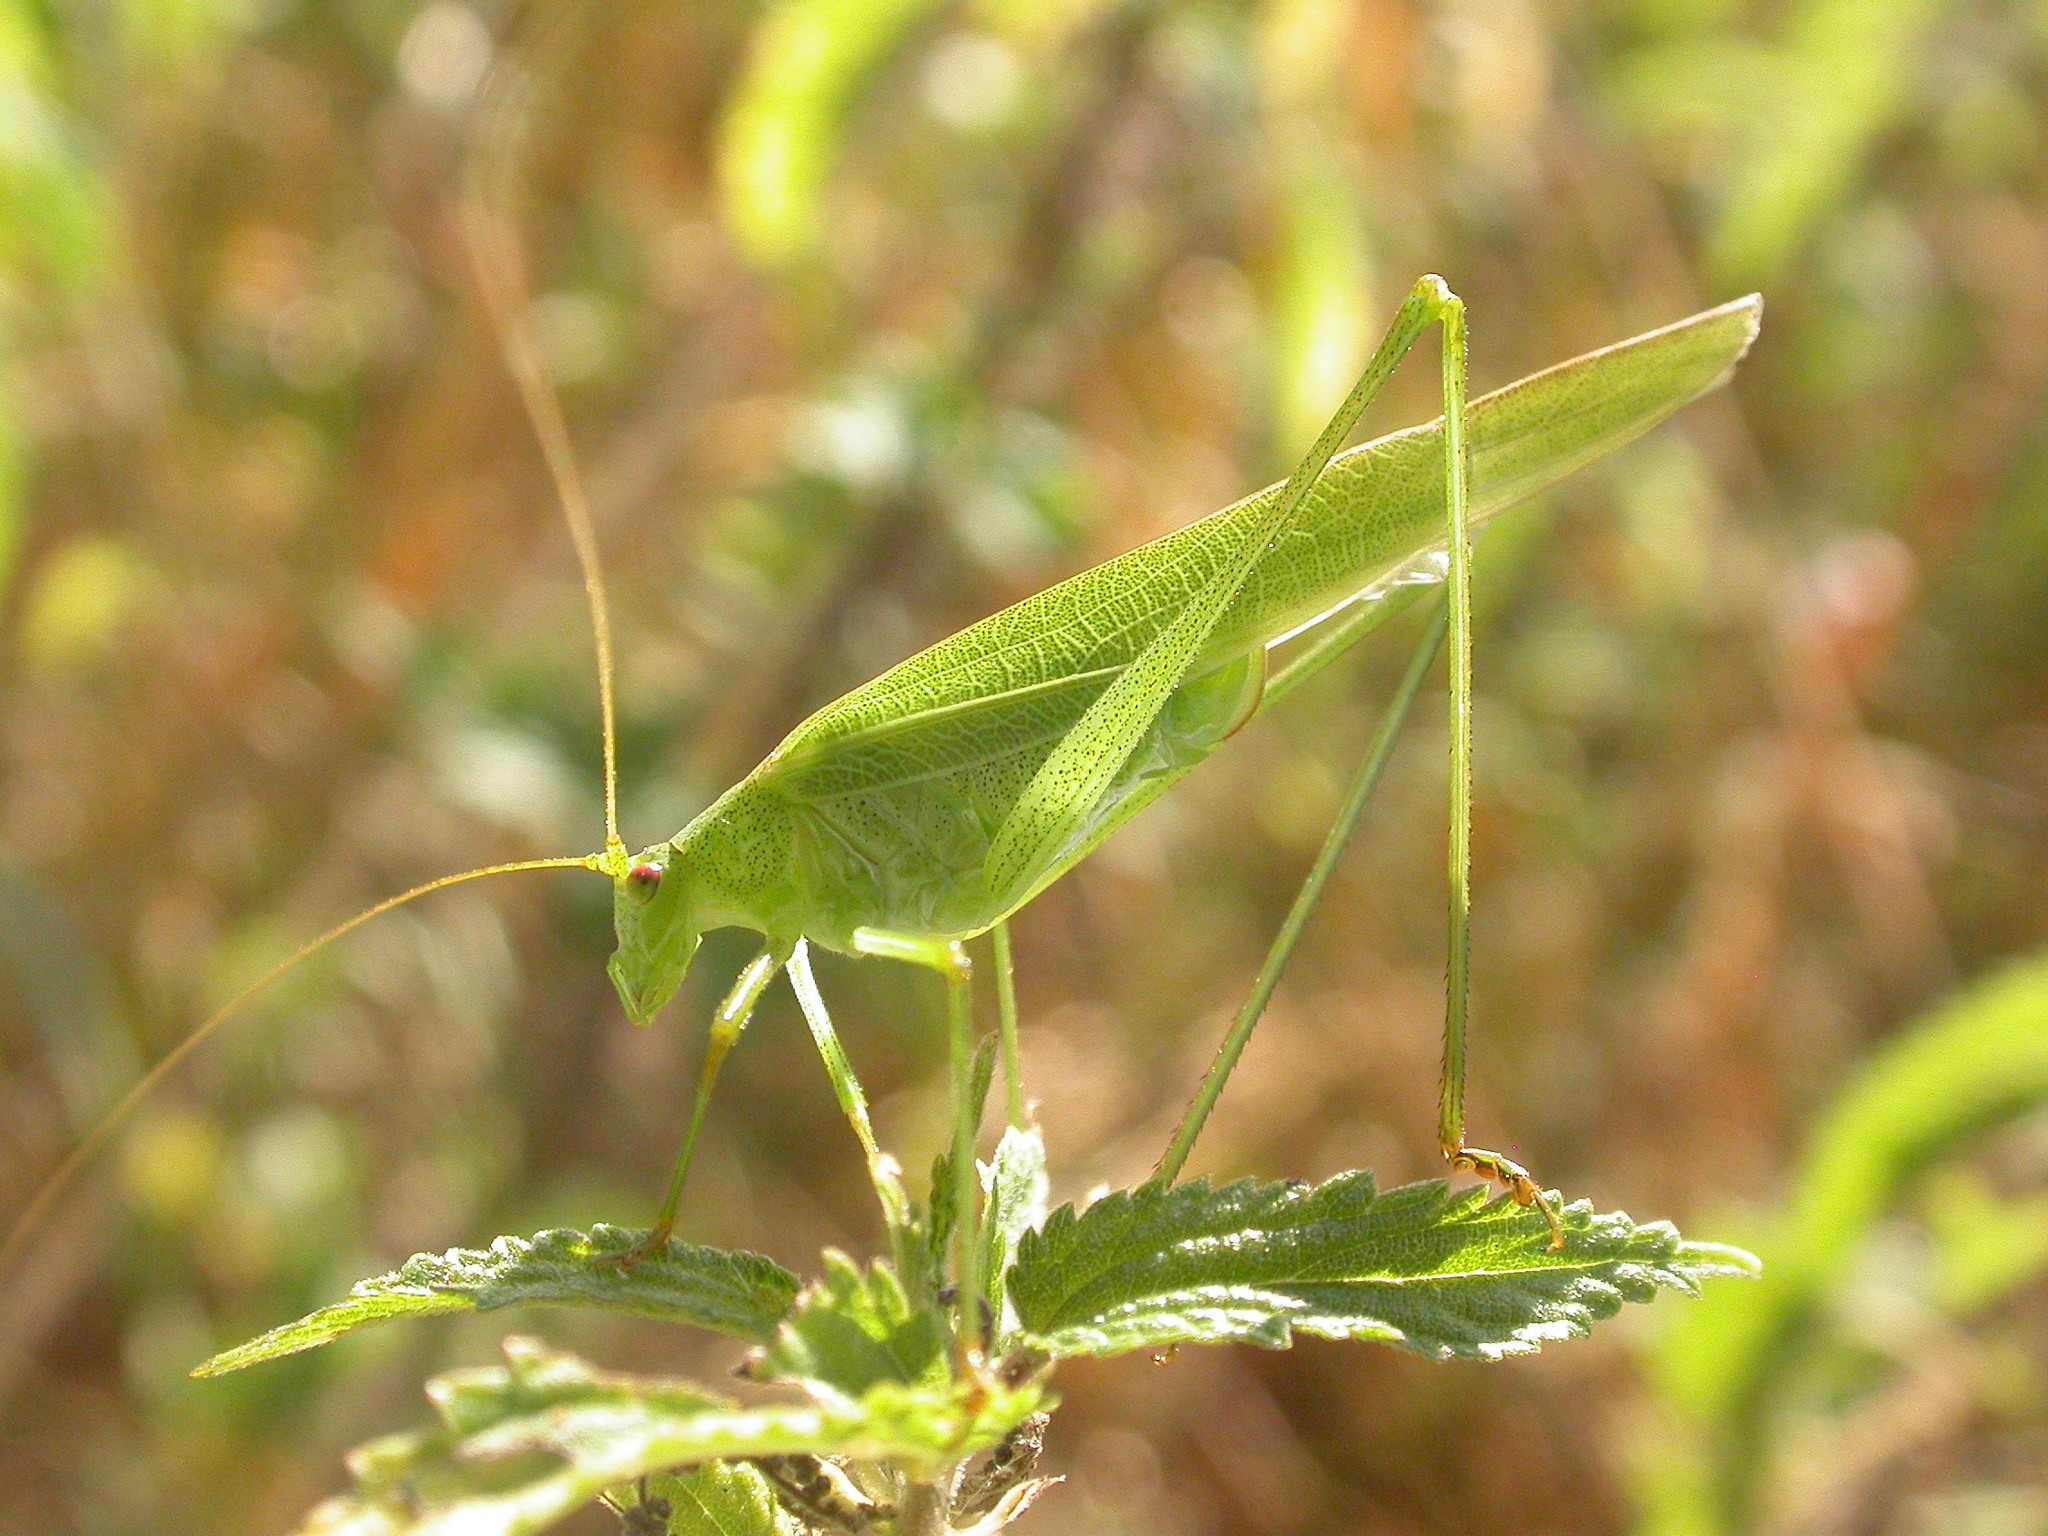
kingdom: Animalia
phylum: Arthropoda
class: Insecta
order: Orthoptera
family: Tettigoniidae
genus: Phaneroptera
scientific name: Phaneroptera falcata
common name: Sickle-bearing bush-cricket
